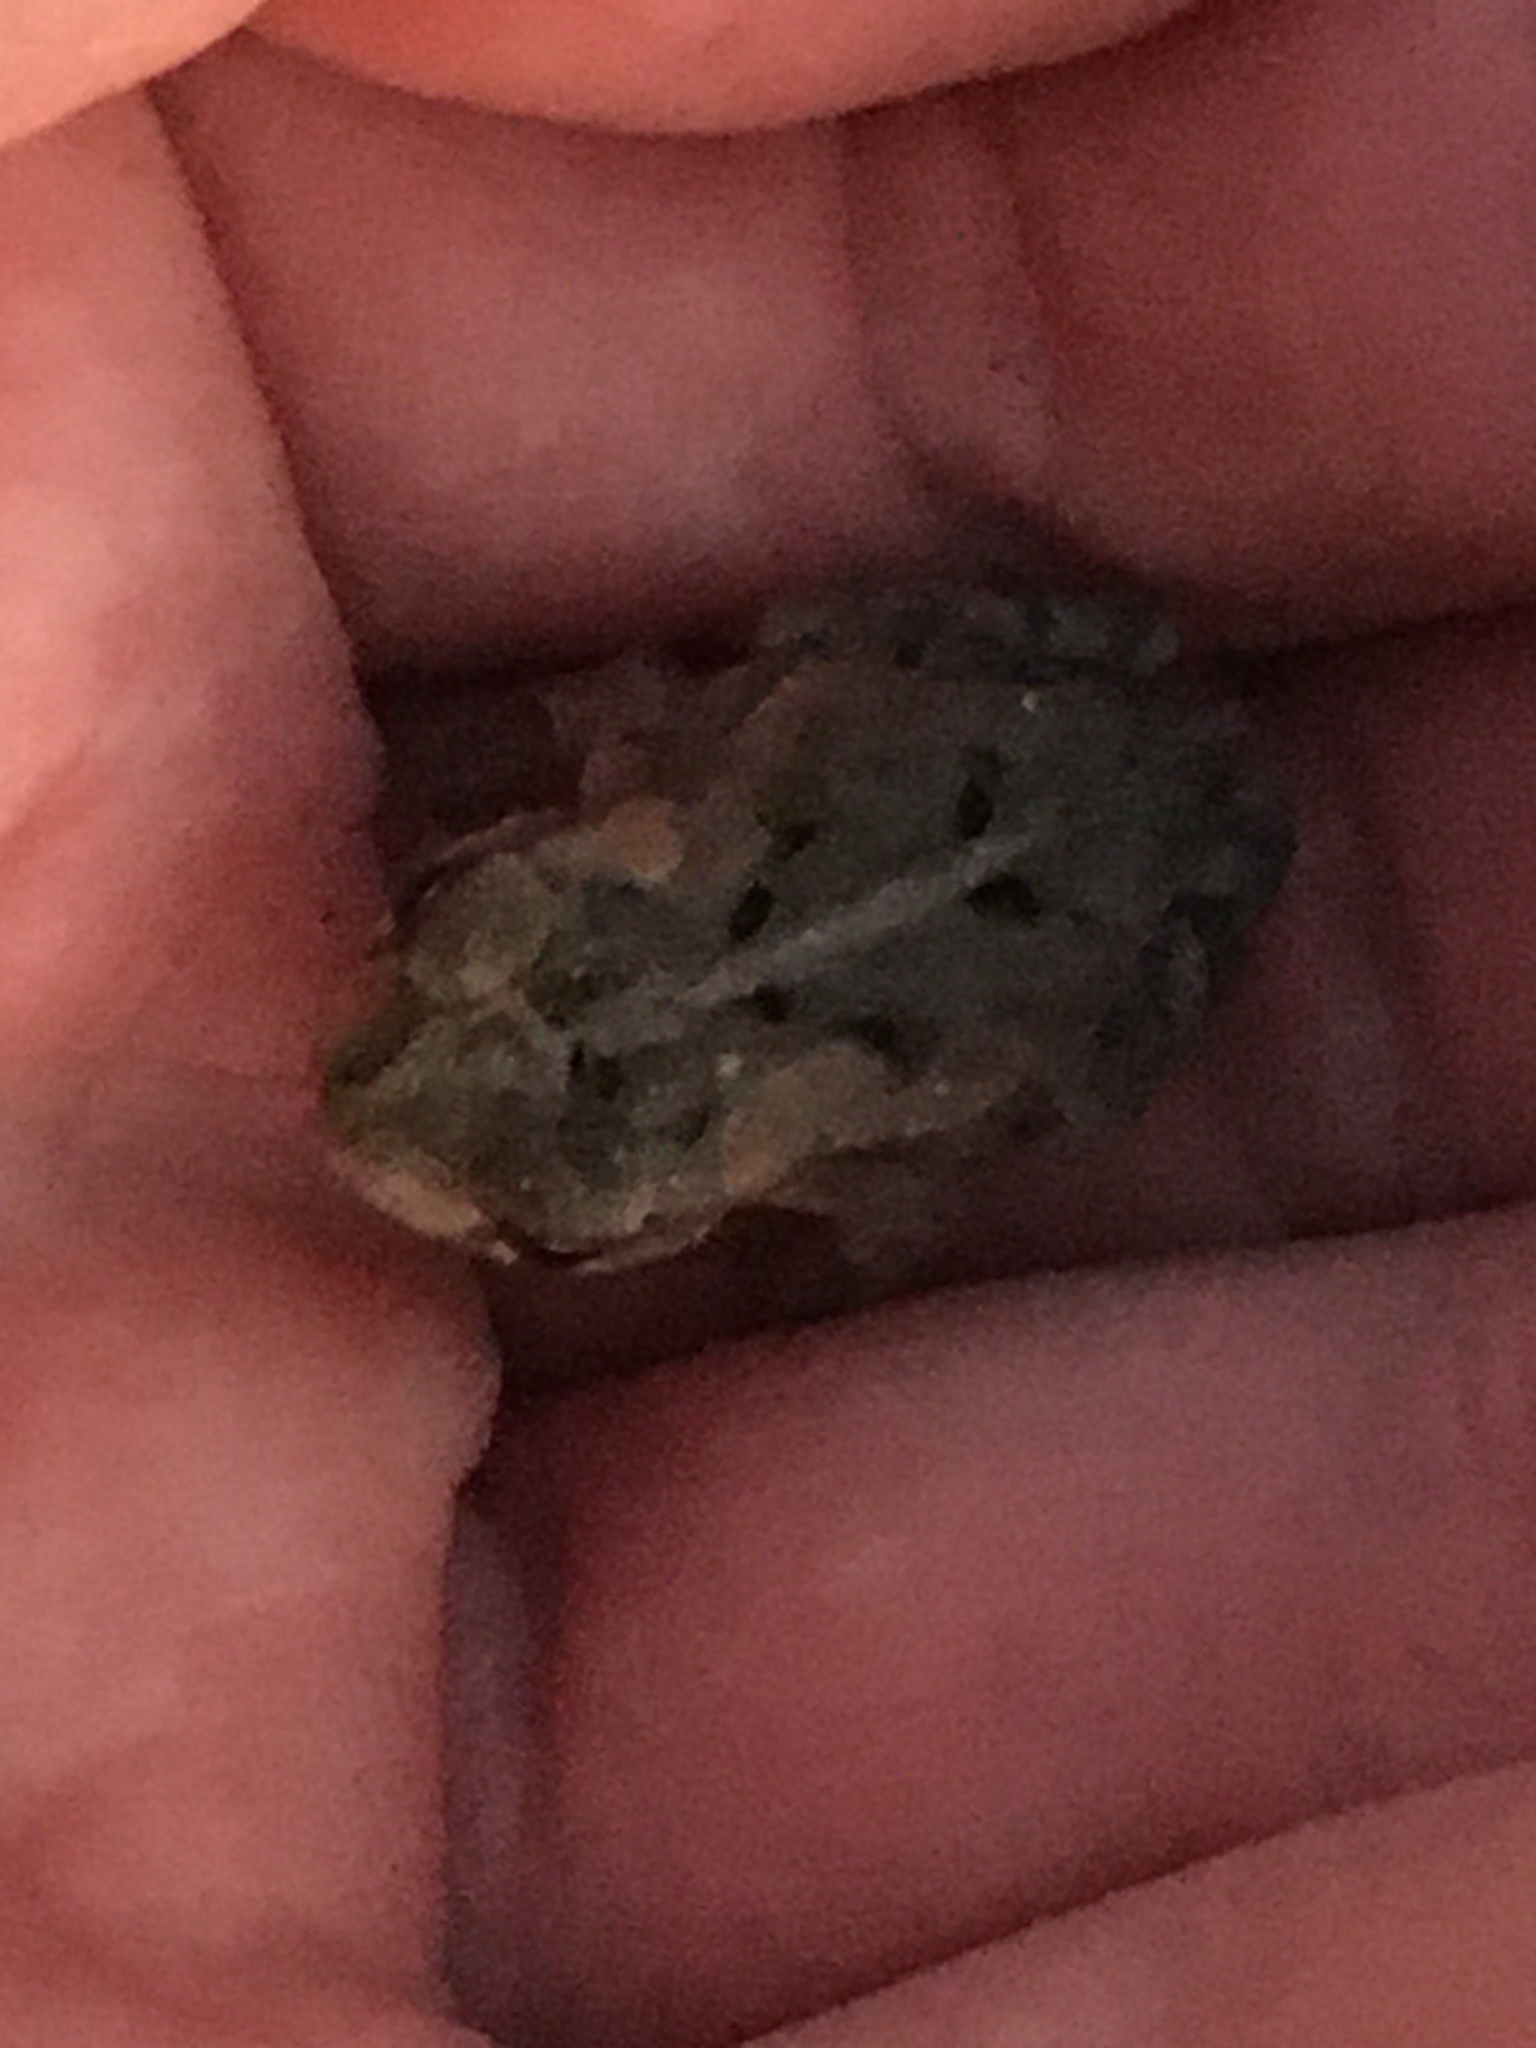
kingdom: Animalia
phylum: Chordata
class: Amphibia
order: Anura
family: Bufonidae
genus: Incilius
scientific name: Incilius nebulifer
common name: Gulf coast toad
